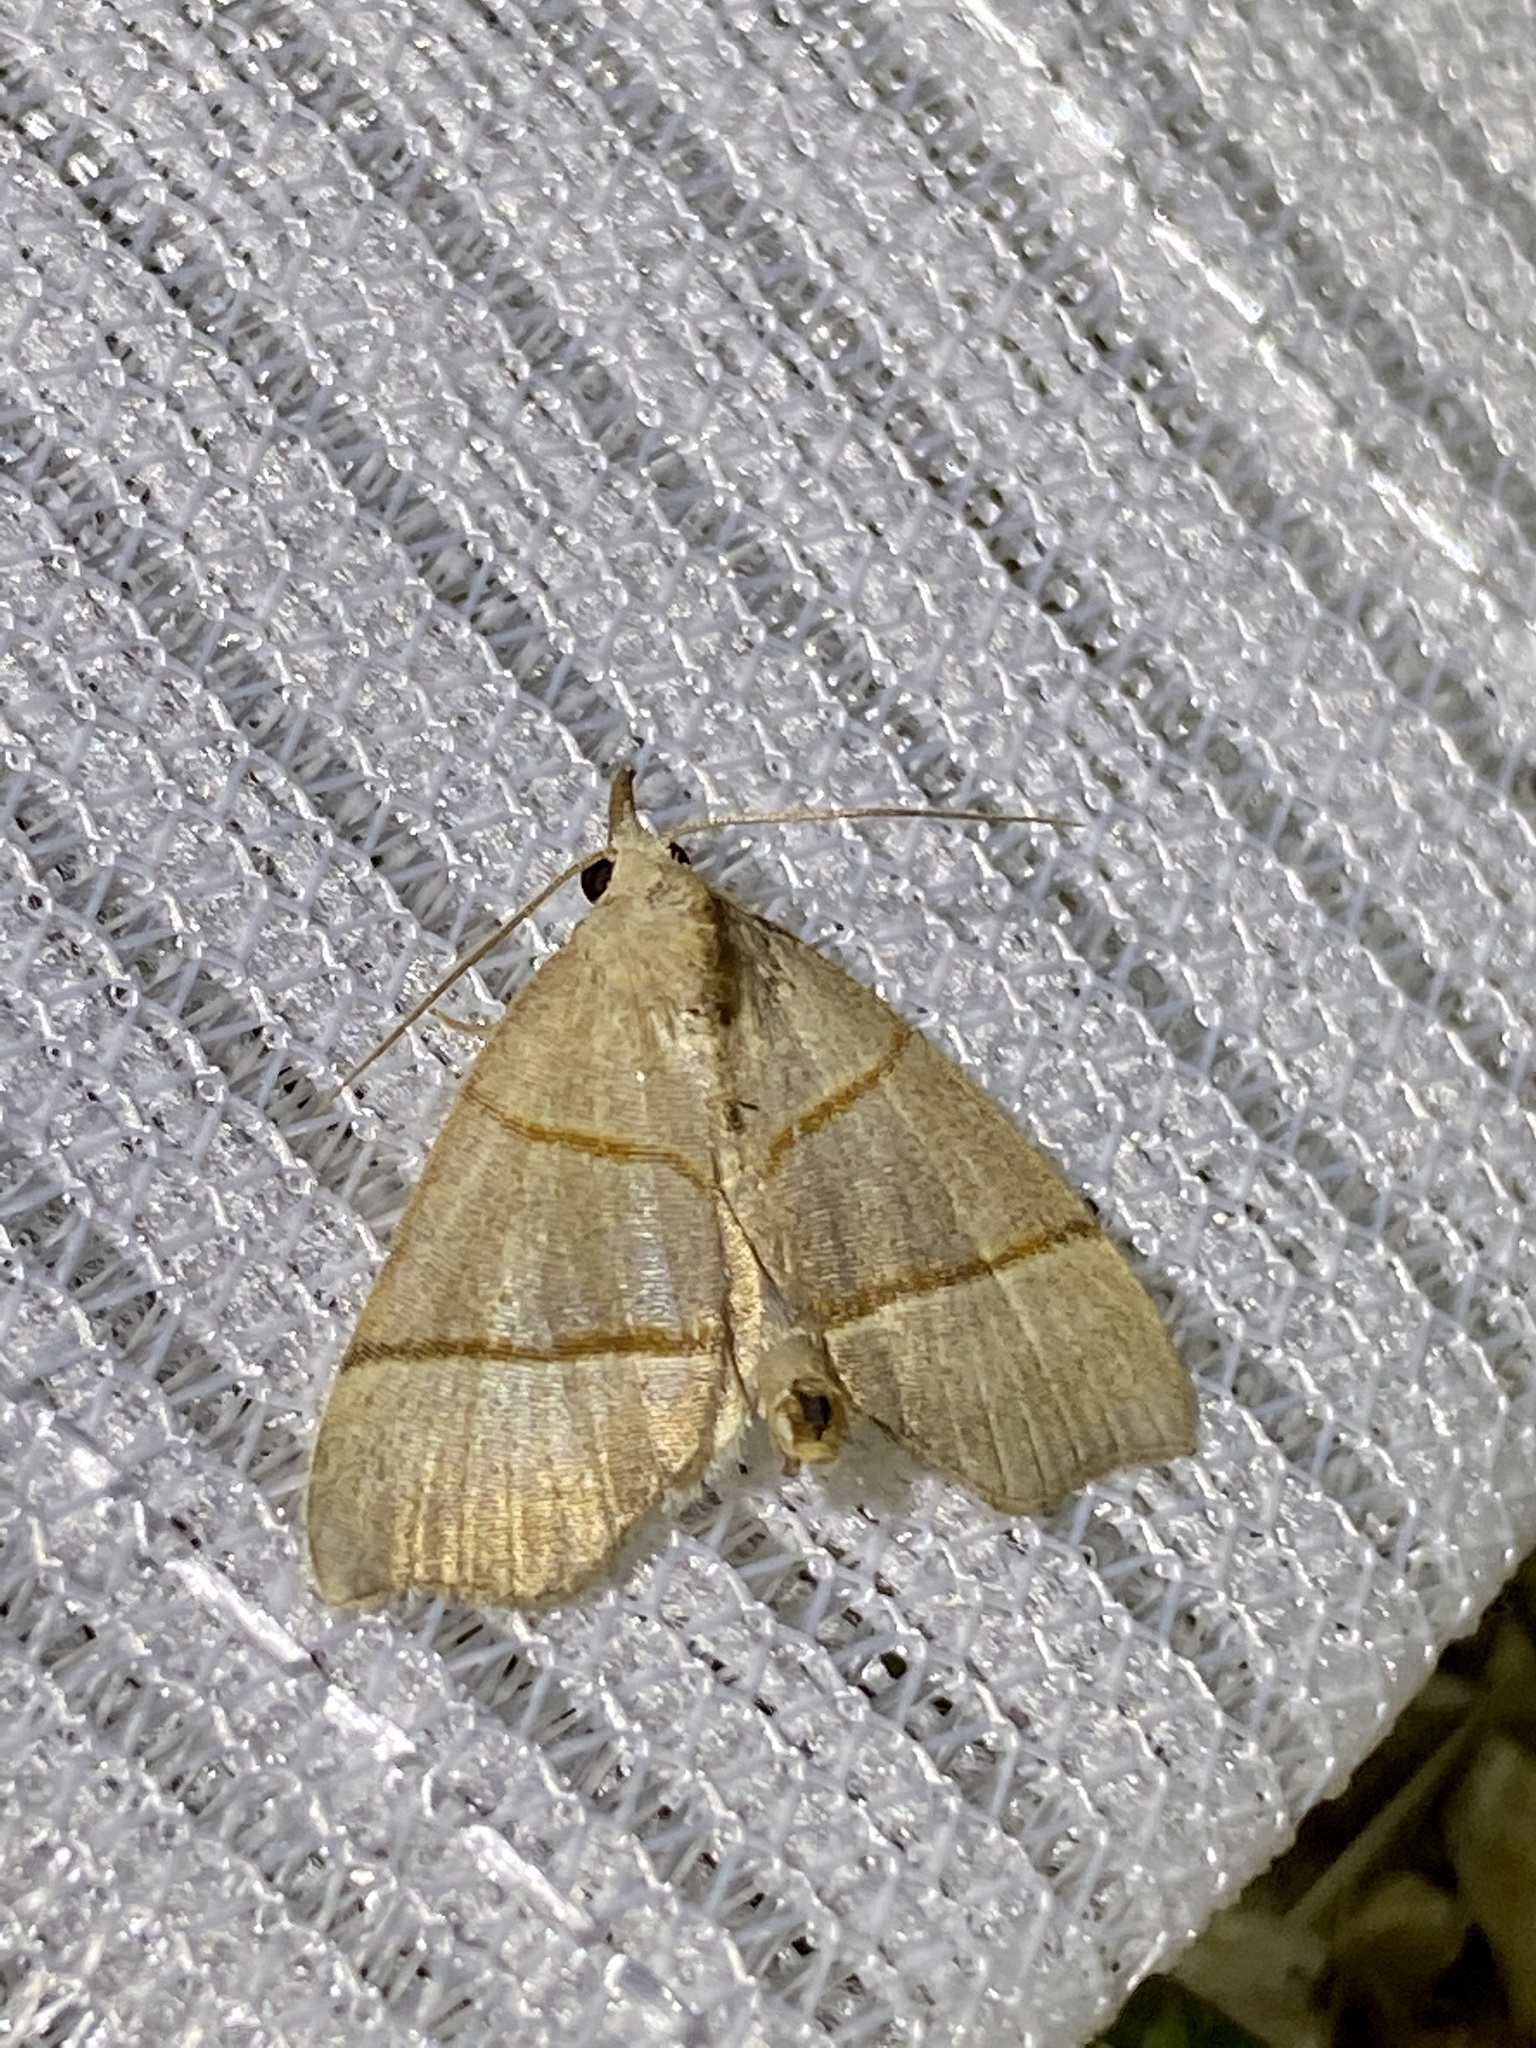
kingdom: Animalia
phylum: Arthropoda
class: Insecta
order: Lepidoptera
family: Noctuidae
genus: Gonepatica
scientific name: Gonepatica opalina
